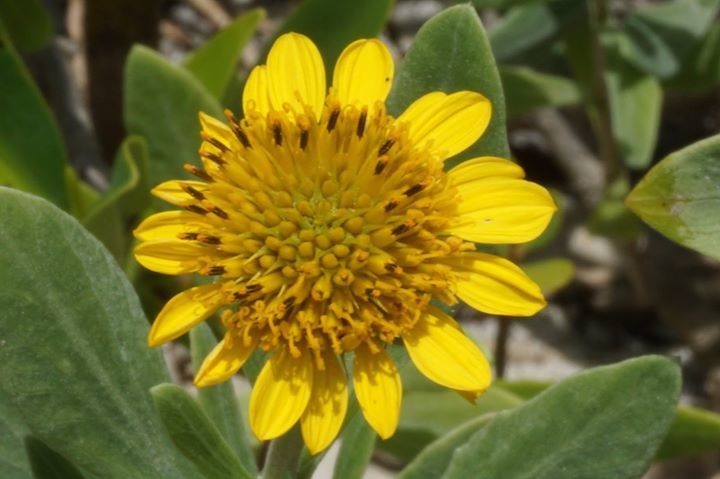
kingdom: Plantae
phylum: Tracheophyta
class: Magnoliopsida
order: Asterales
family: Asteraceae
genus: Borrichia
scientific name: Borrichia frutescens
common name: Sea oxeye
